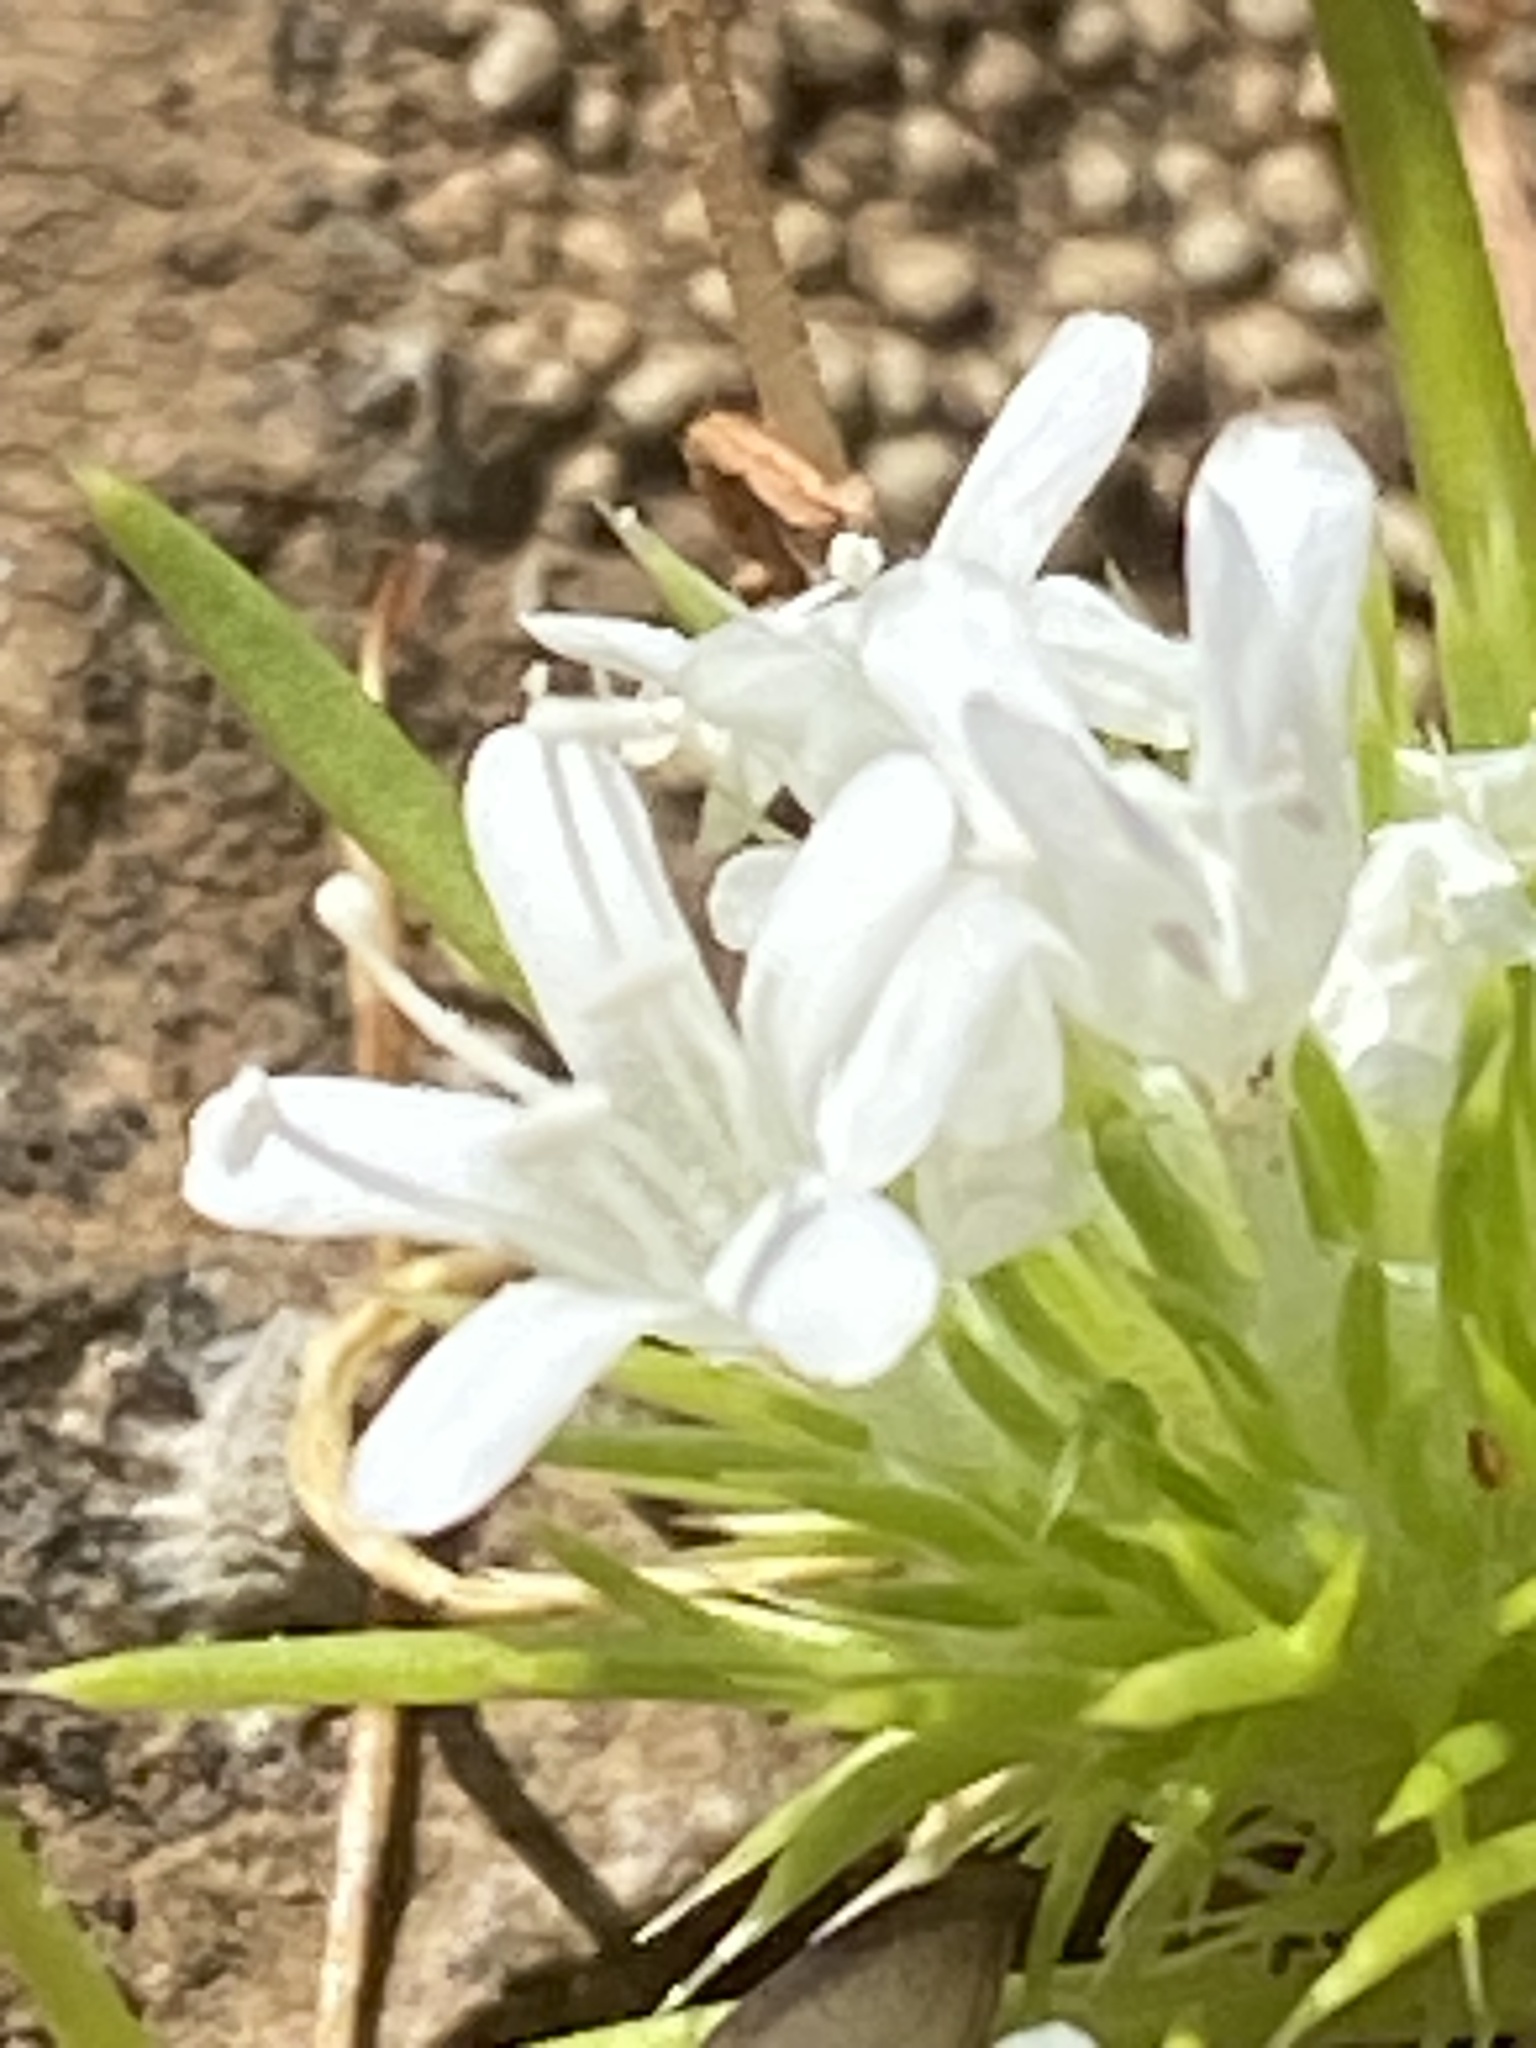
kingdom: Plantae
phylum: Tracheophyta
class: Magnoliopsida
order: Ericales
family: Polemoniaceae
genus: Navarretia
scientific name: Navarretia leucocephala
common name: White-flowered navarretia
